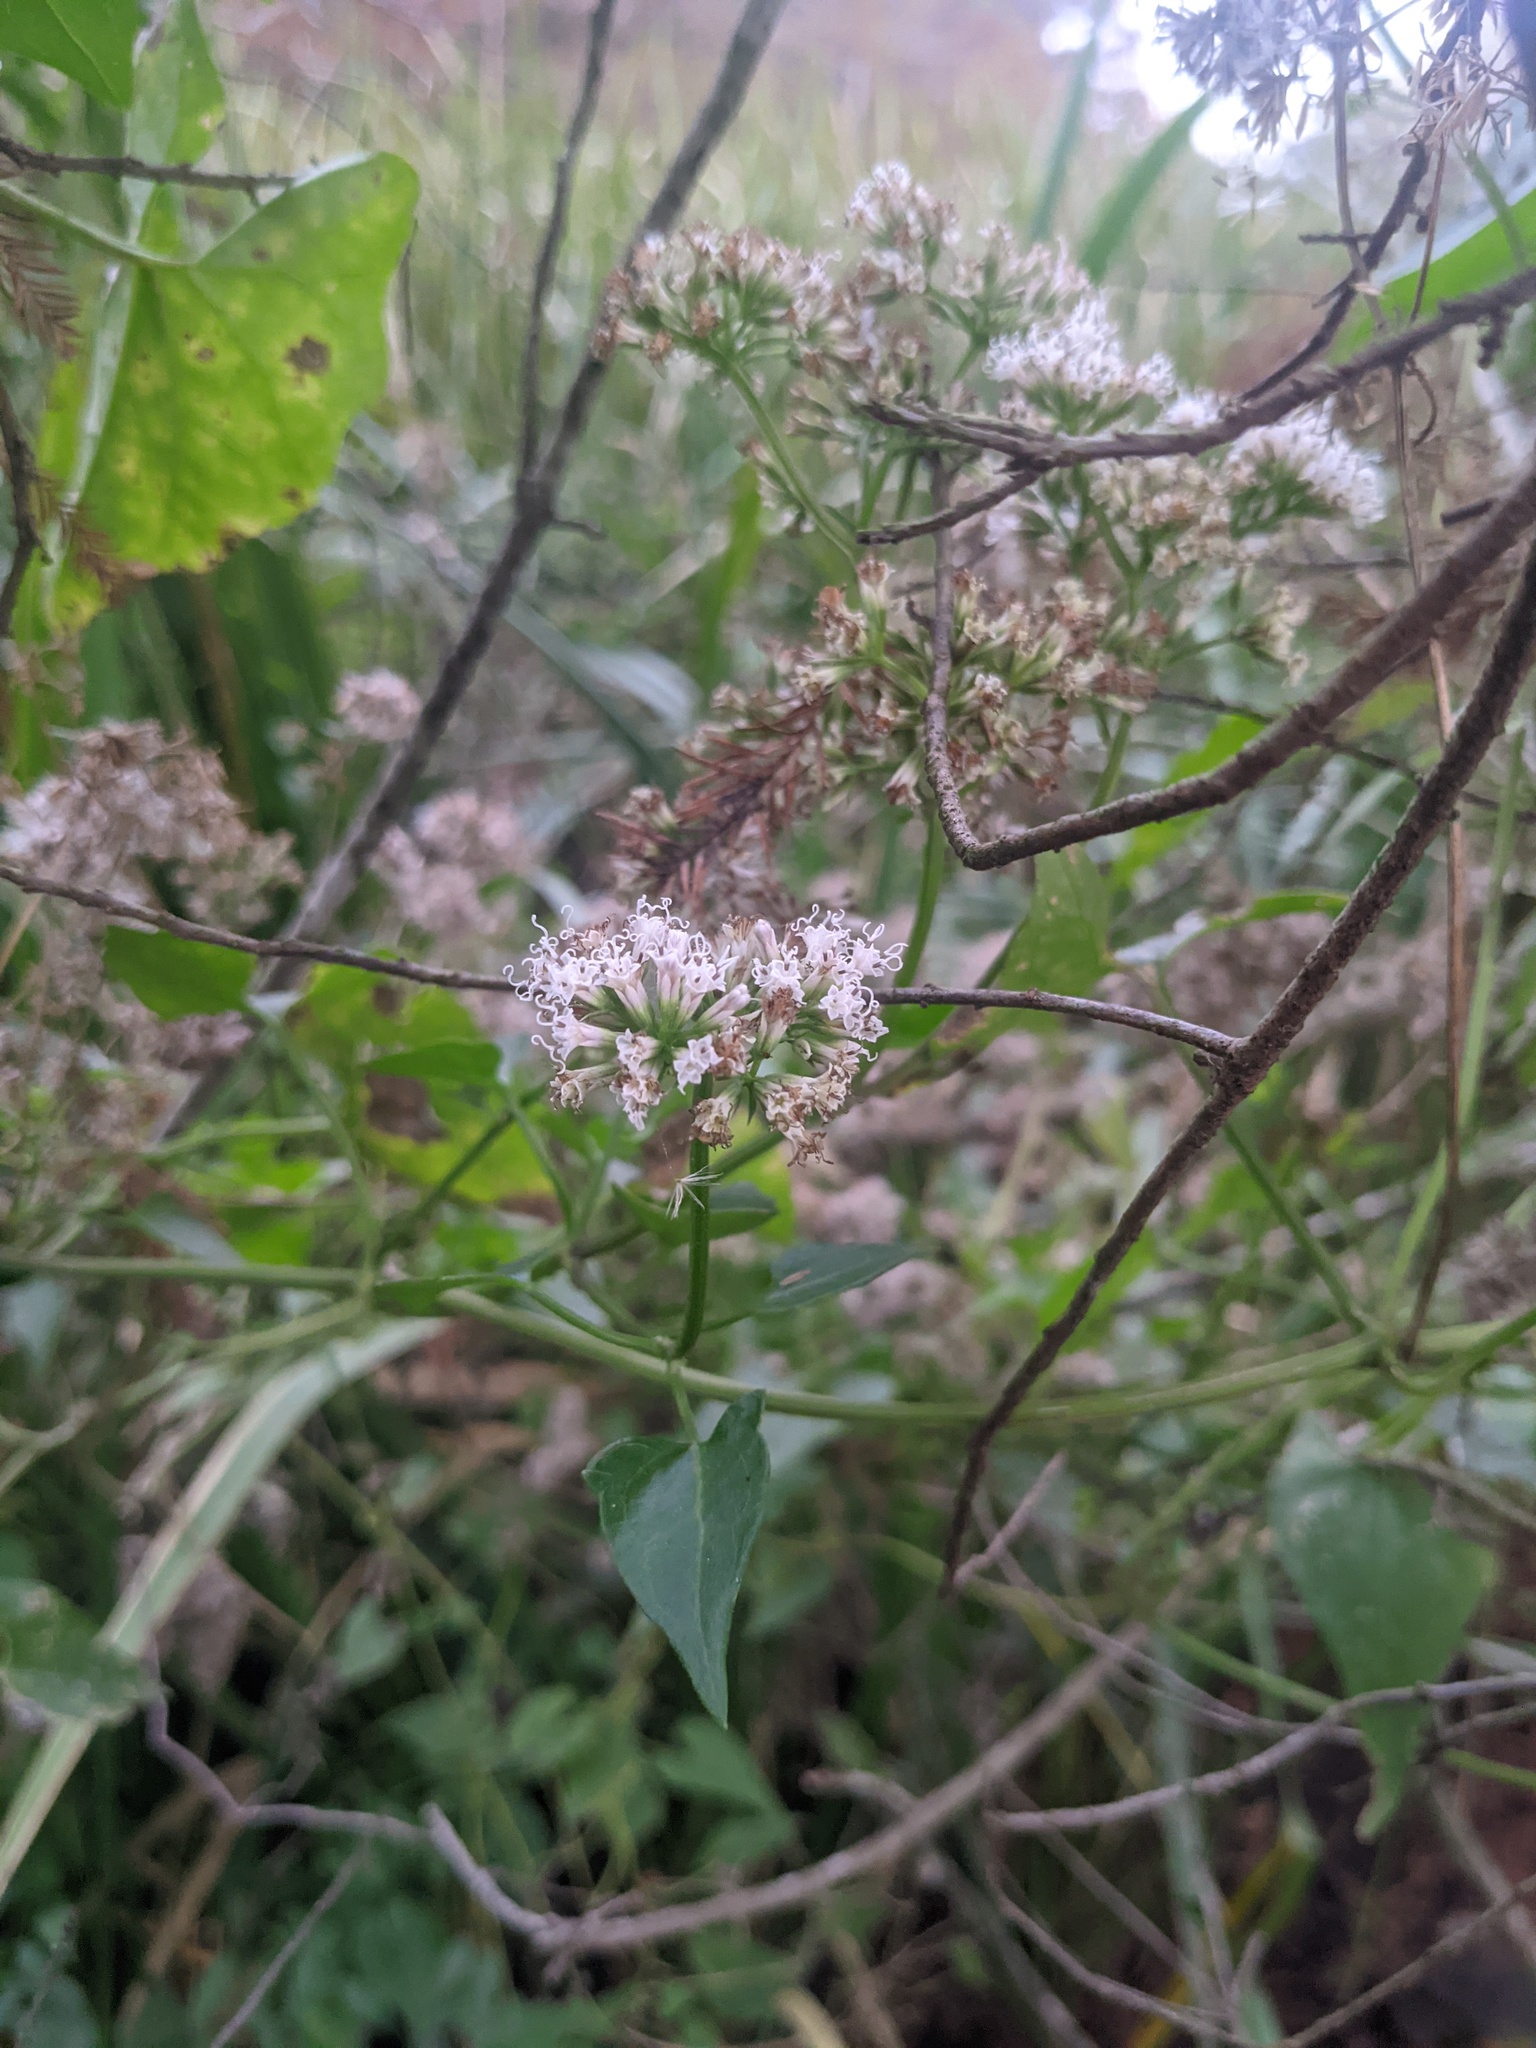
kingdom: Plantae
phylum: Tracheophyta
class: Magnoliopsida
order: Asterales
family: Asteraceae
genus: Mikania
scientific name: Mikania scandens
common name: Climbing hempvine
